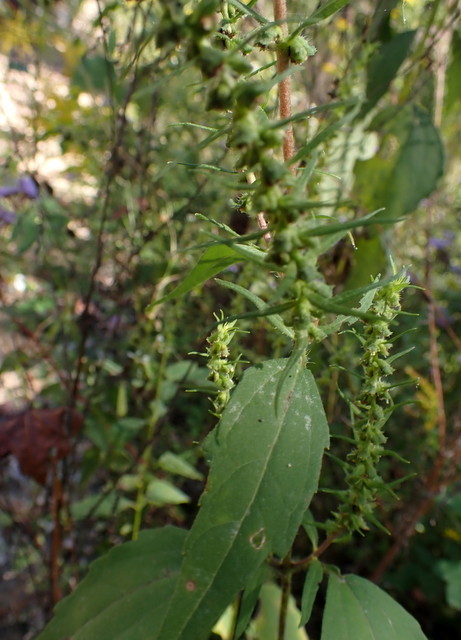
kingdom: Plantae
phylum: Tracheophyta
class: Magnoliopsida
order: Asterales
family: Asteraceae
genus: Iva
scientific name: Iva annua
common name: Marsh-elder
